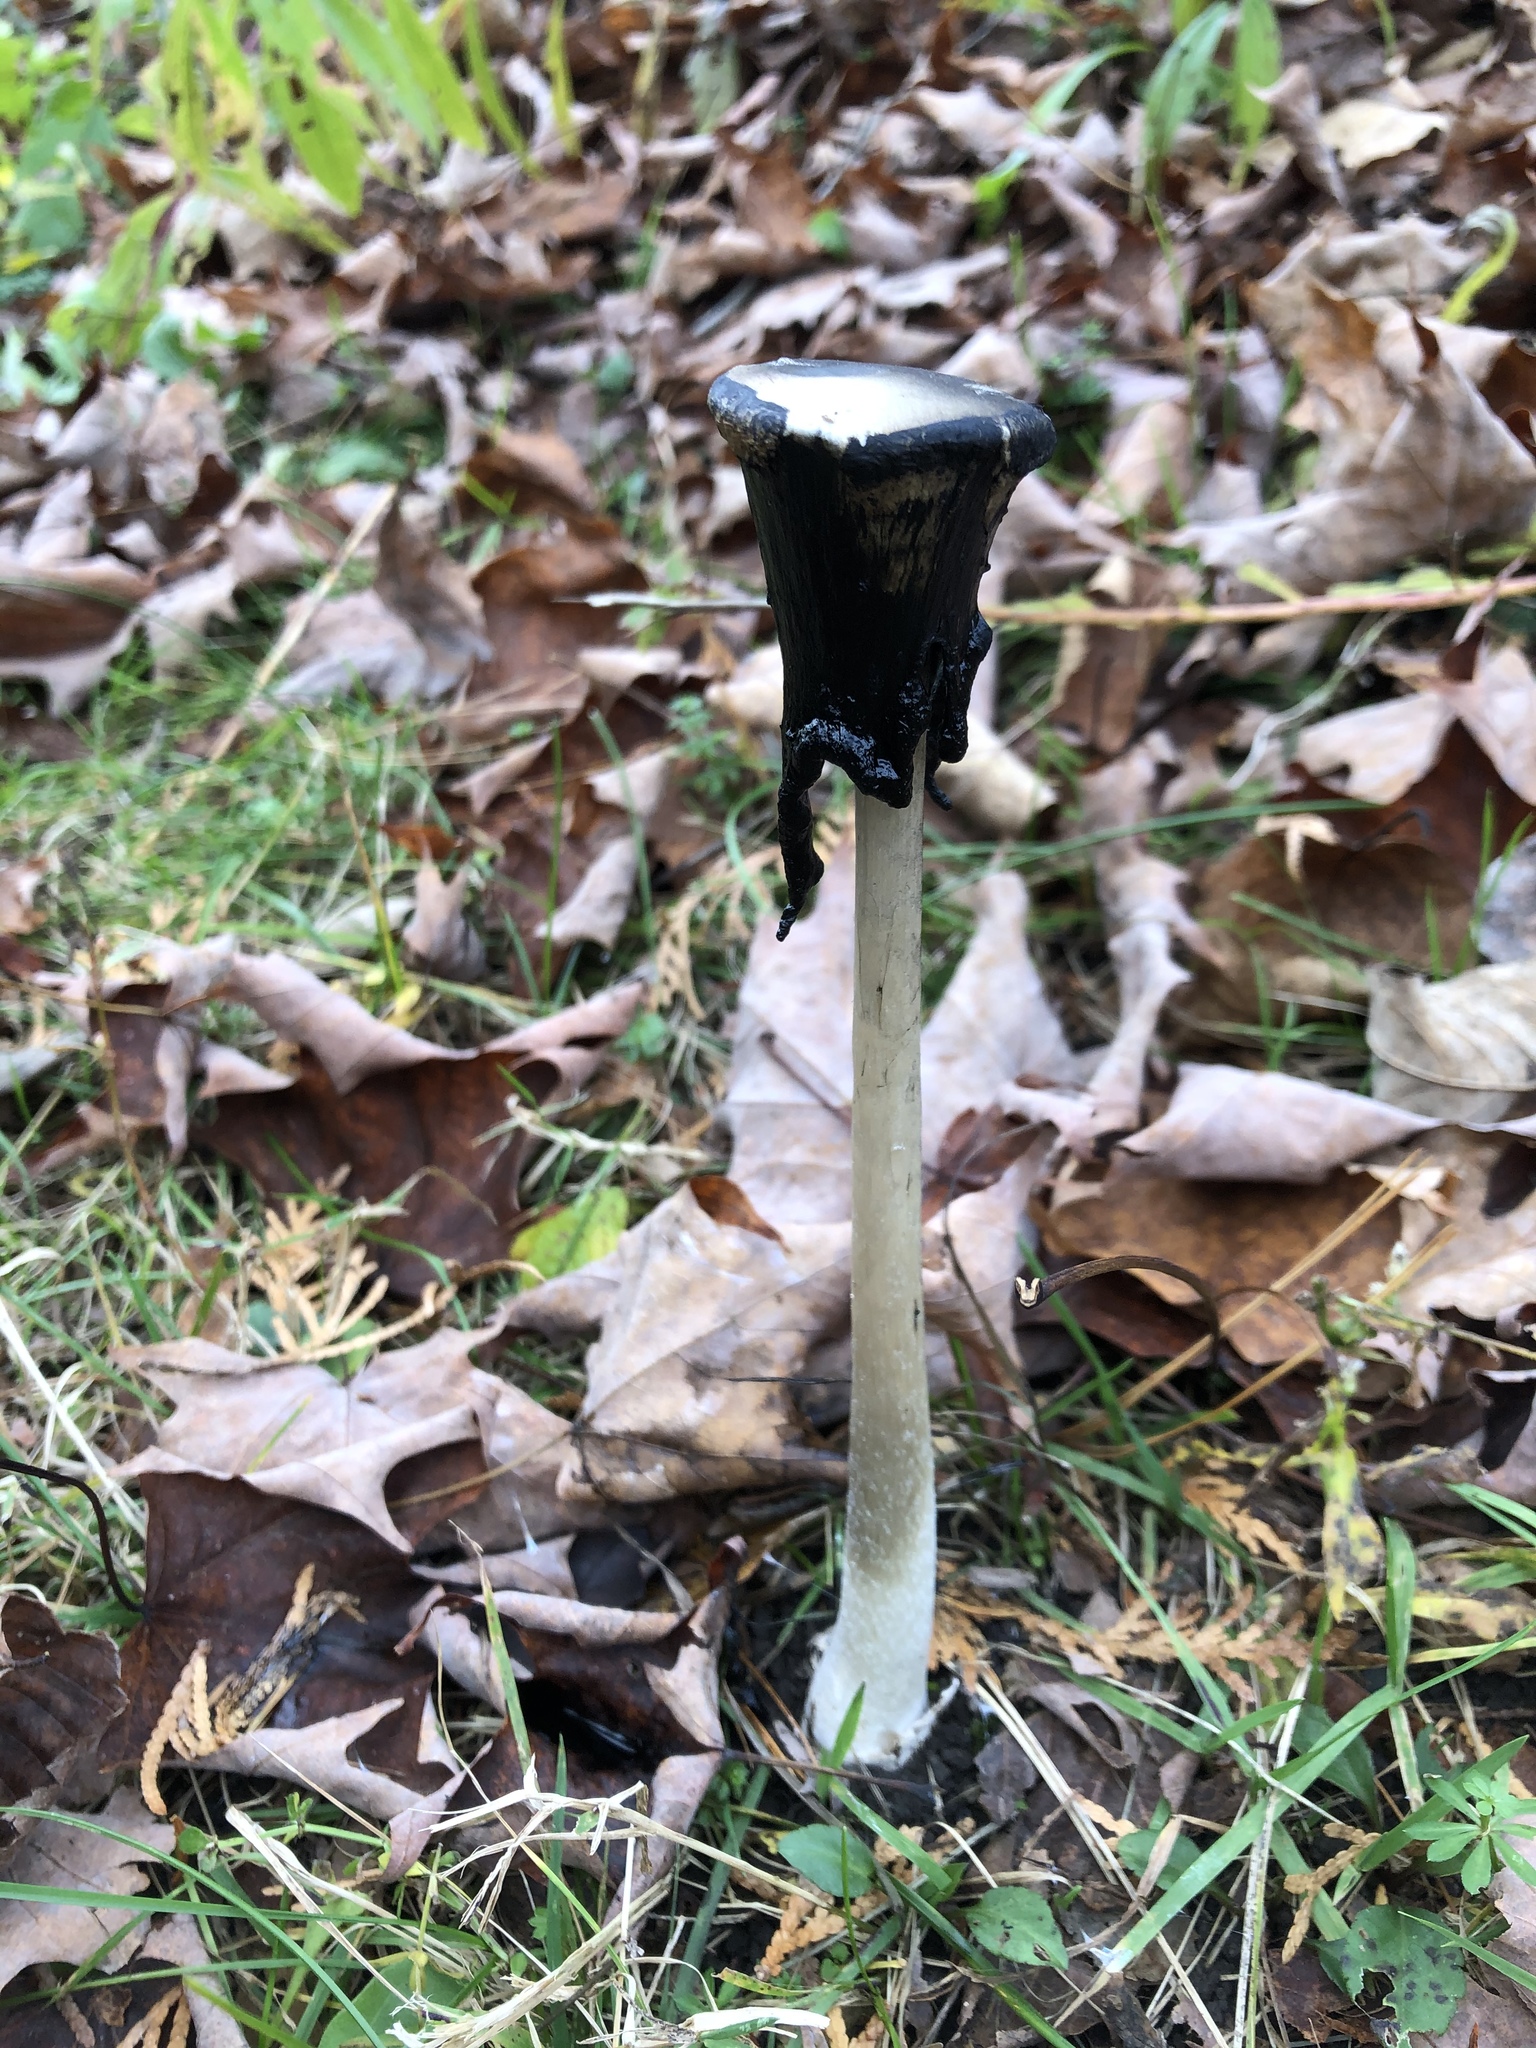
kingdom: Fungi
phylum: Basidiomycota
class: Agaricomycetes
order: Agaricales
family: Agaricaceae
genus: Coprinus
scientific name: Coprinus comatus
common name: Lawyer's wig
